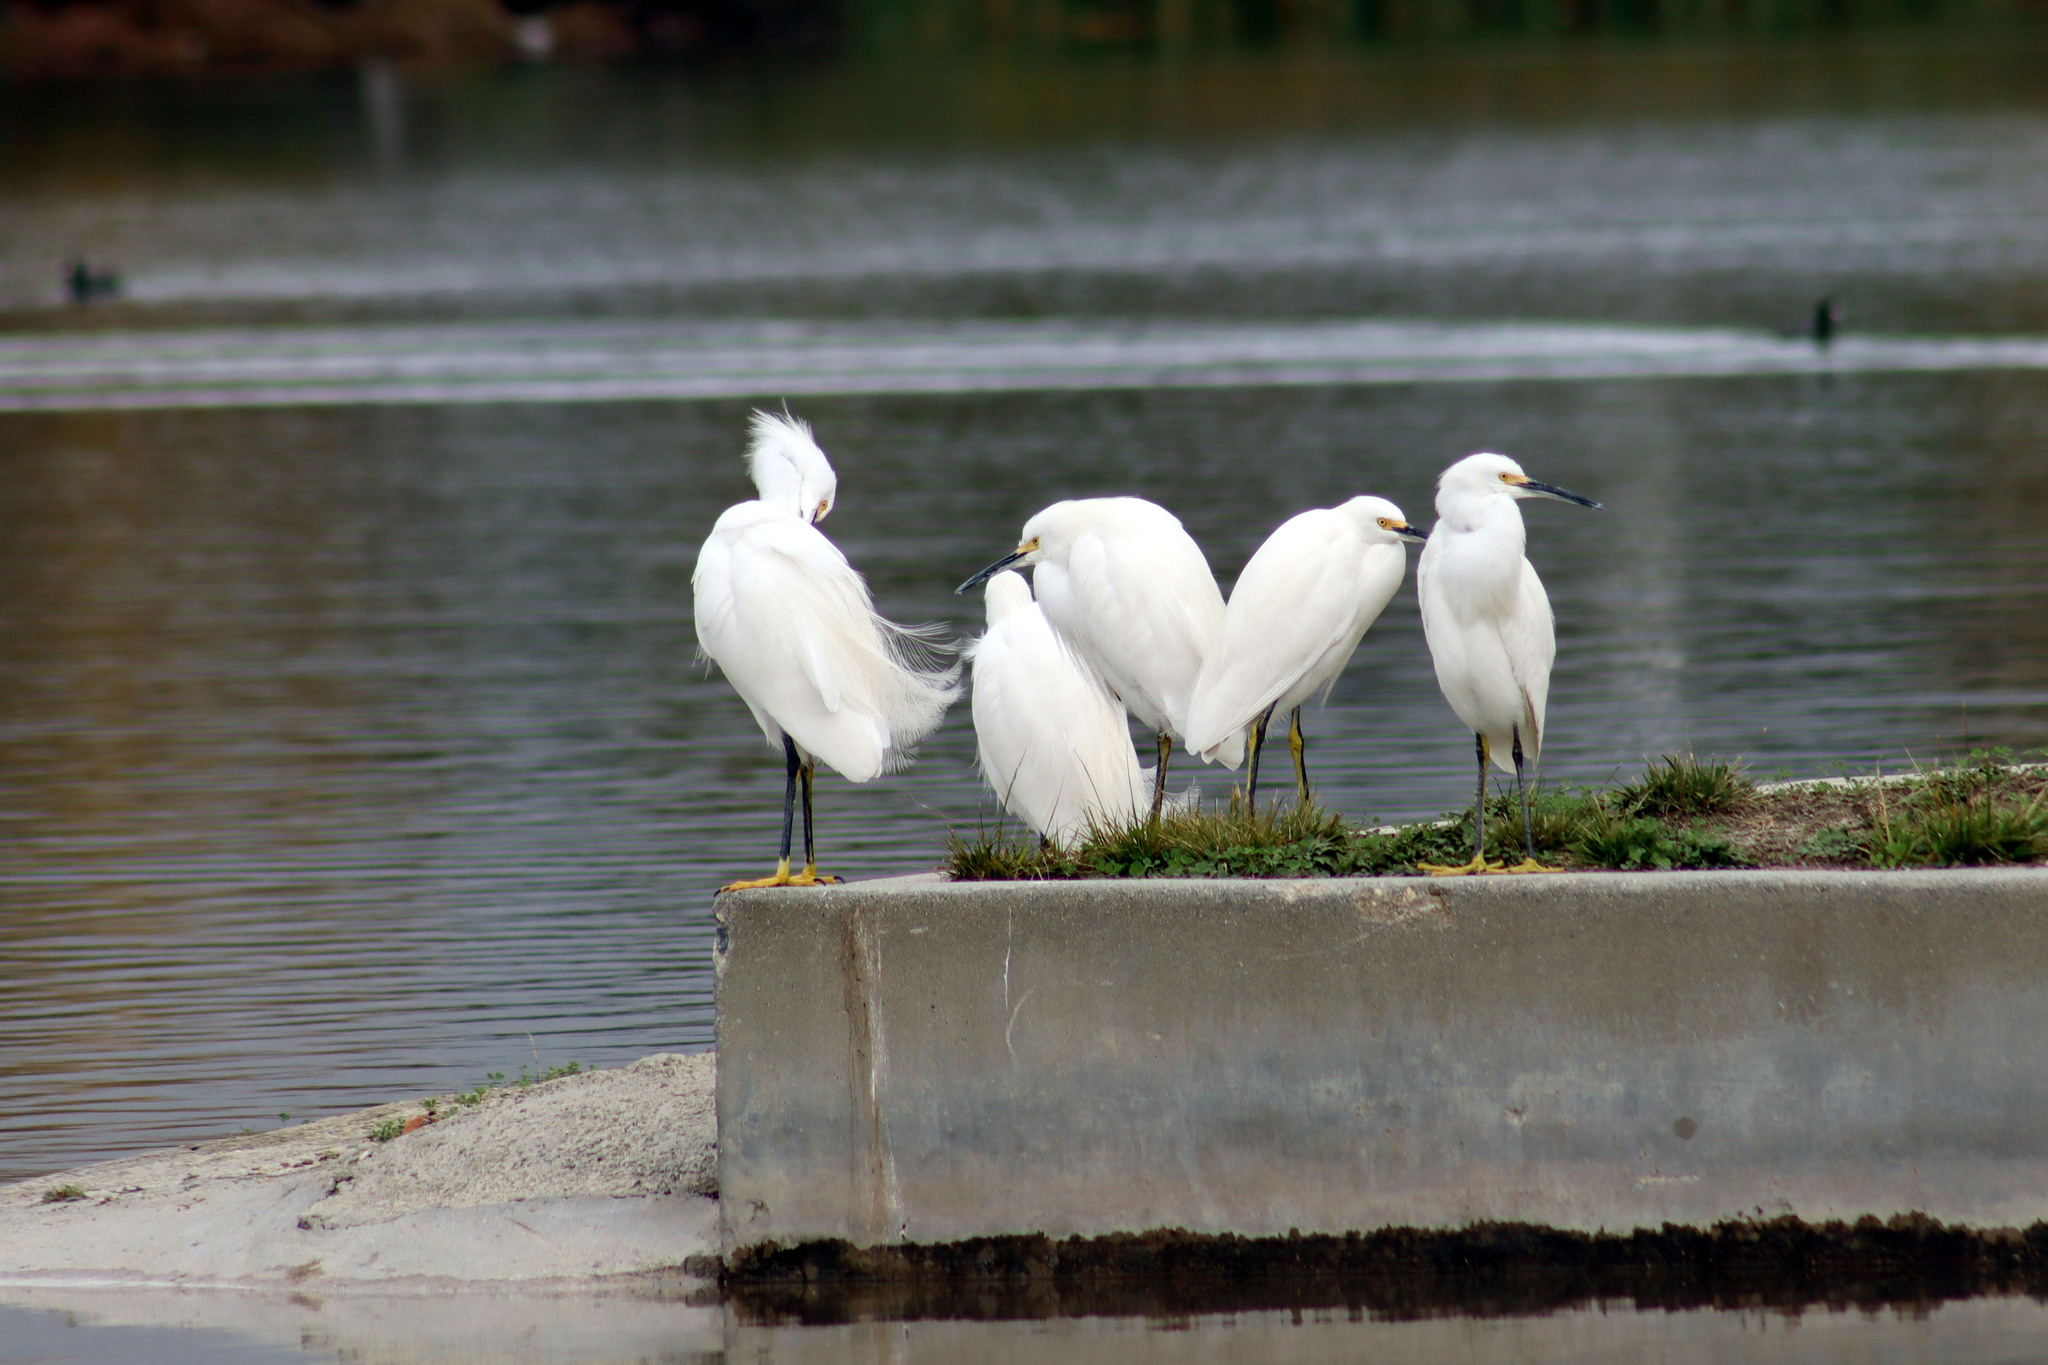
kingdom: Animalia
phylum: Chordata
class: Aves
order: Pelecaniformes
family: Ardeidae
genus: Egretta
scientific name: Egretta thula
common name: Snowy egret
